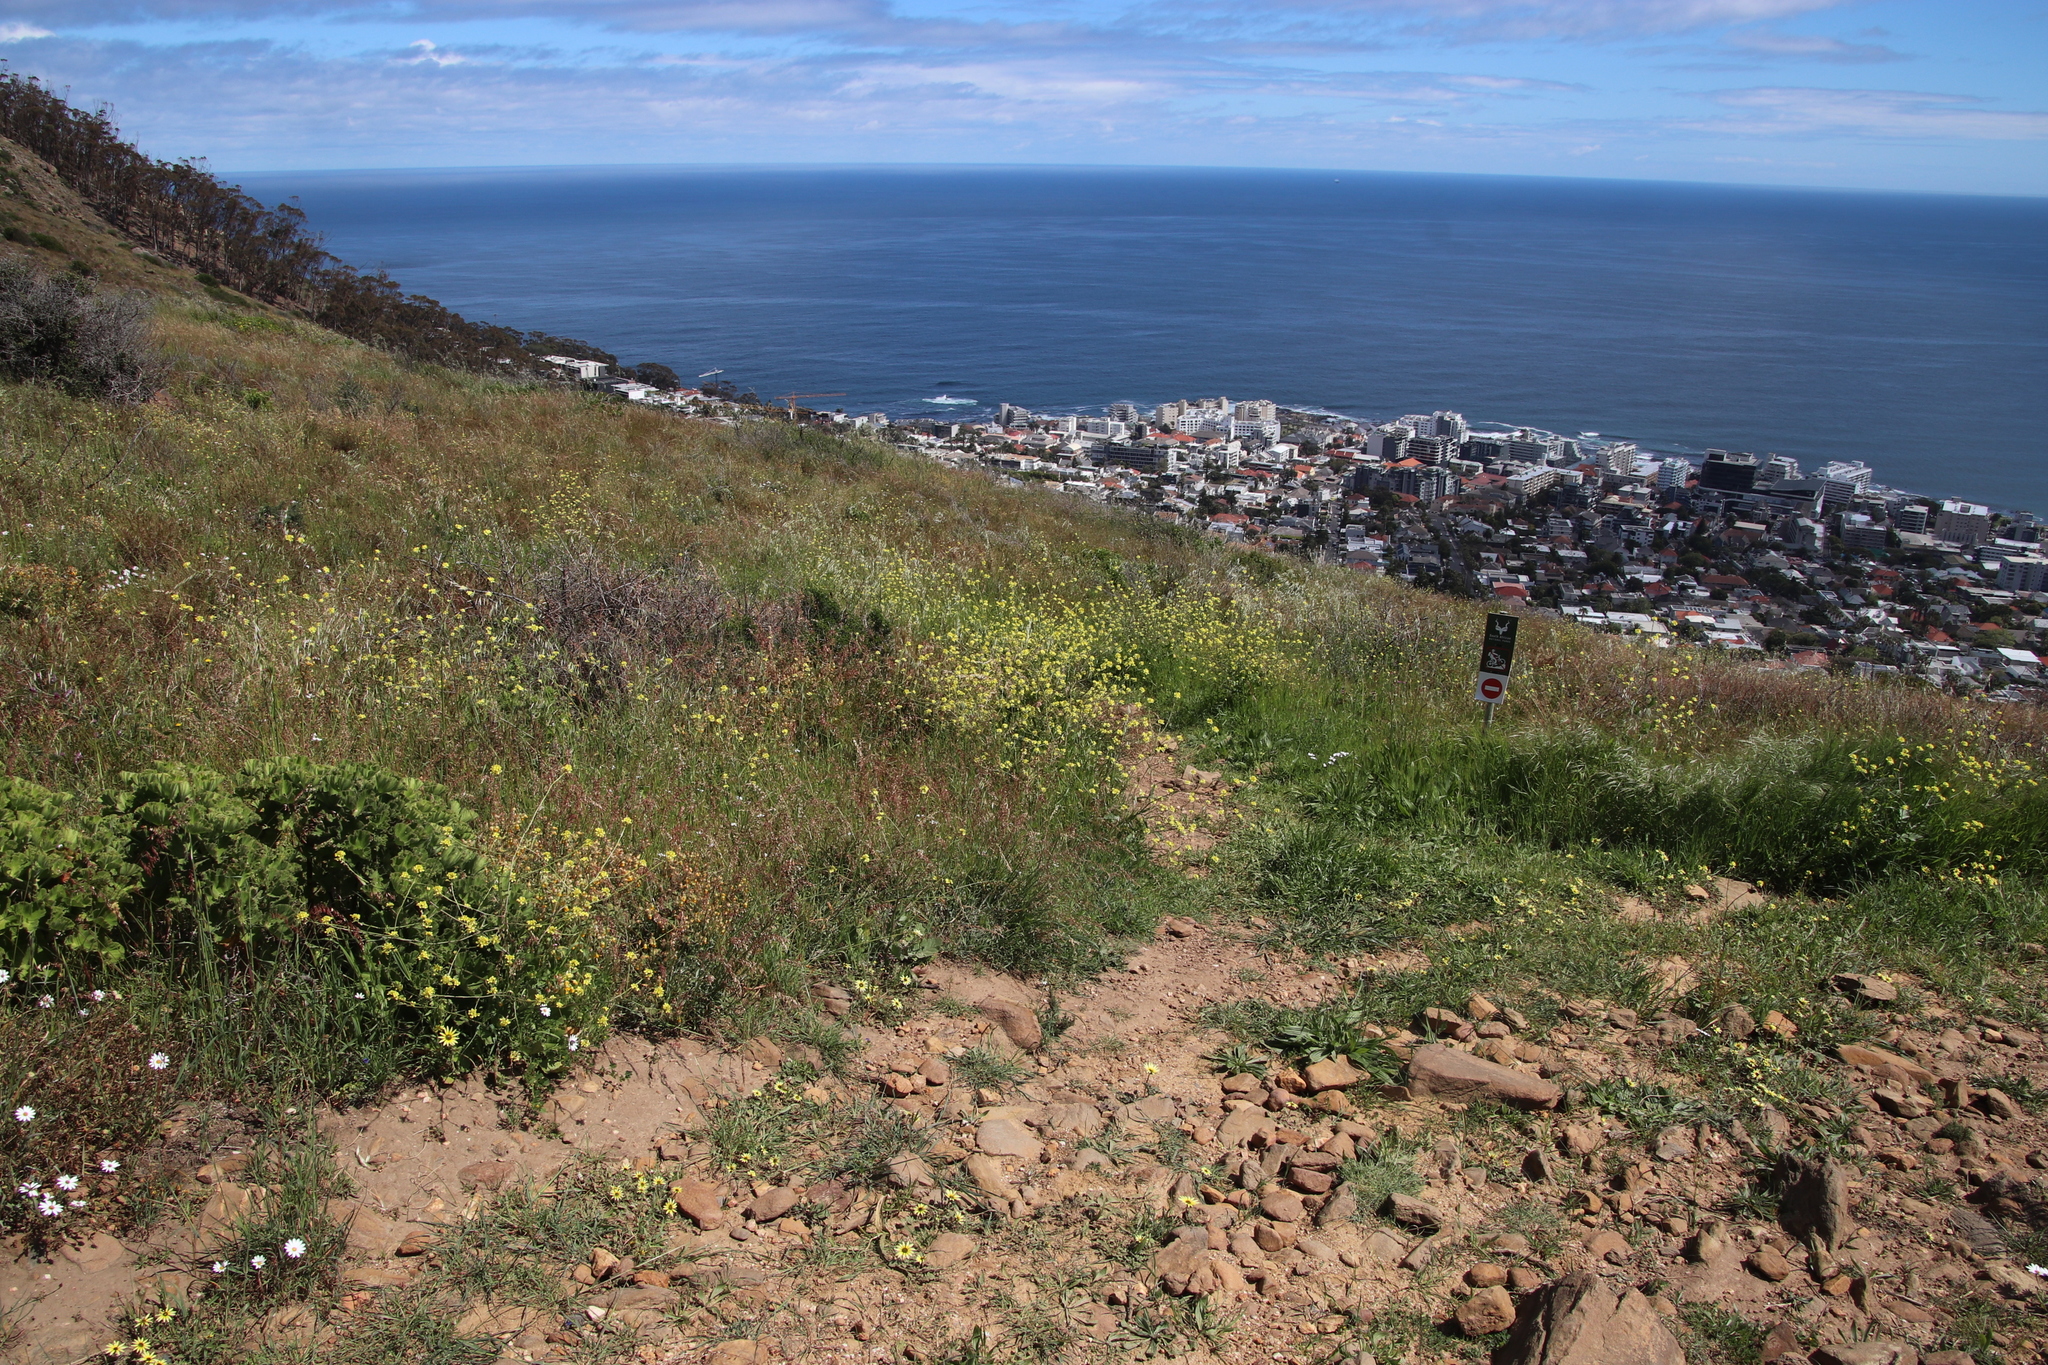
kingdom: Plantae
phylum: Tracheophyta
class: Magnoliopsida
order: Brassicales
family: Brassicaceae
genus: Rapistrum
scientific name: Rapistrum rugosum
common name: Annual bastardcabbage
